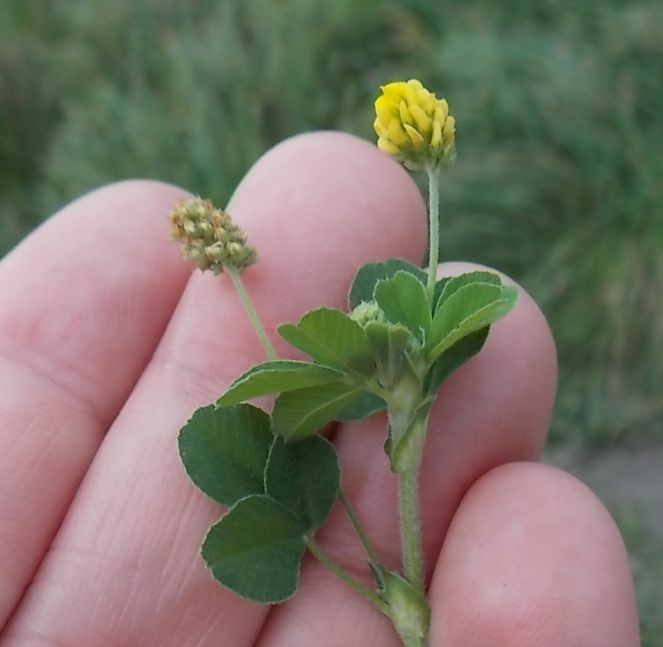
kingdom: Plantae
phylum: Tracheophyta
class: Magnoliopsida
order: Fabales
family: Fabaceae
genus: Medicago
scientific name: Medicago lupulina
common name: Black medick
